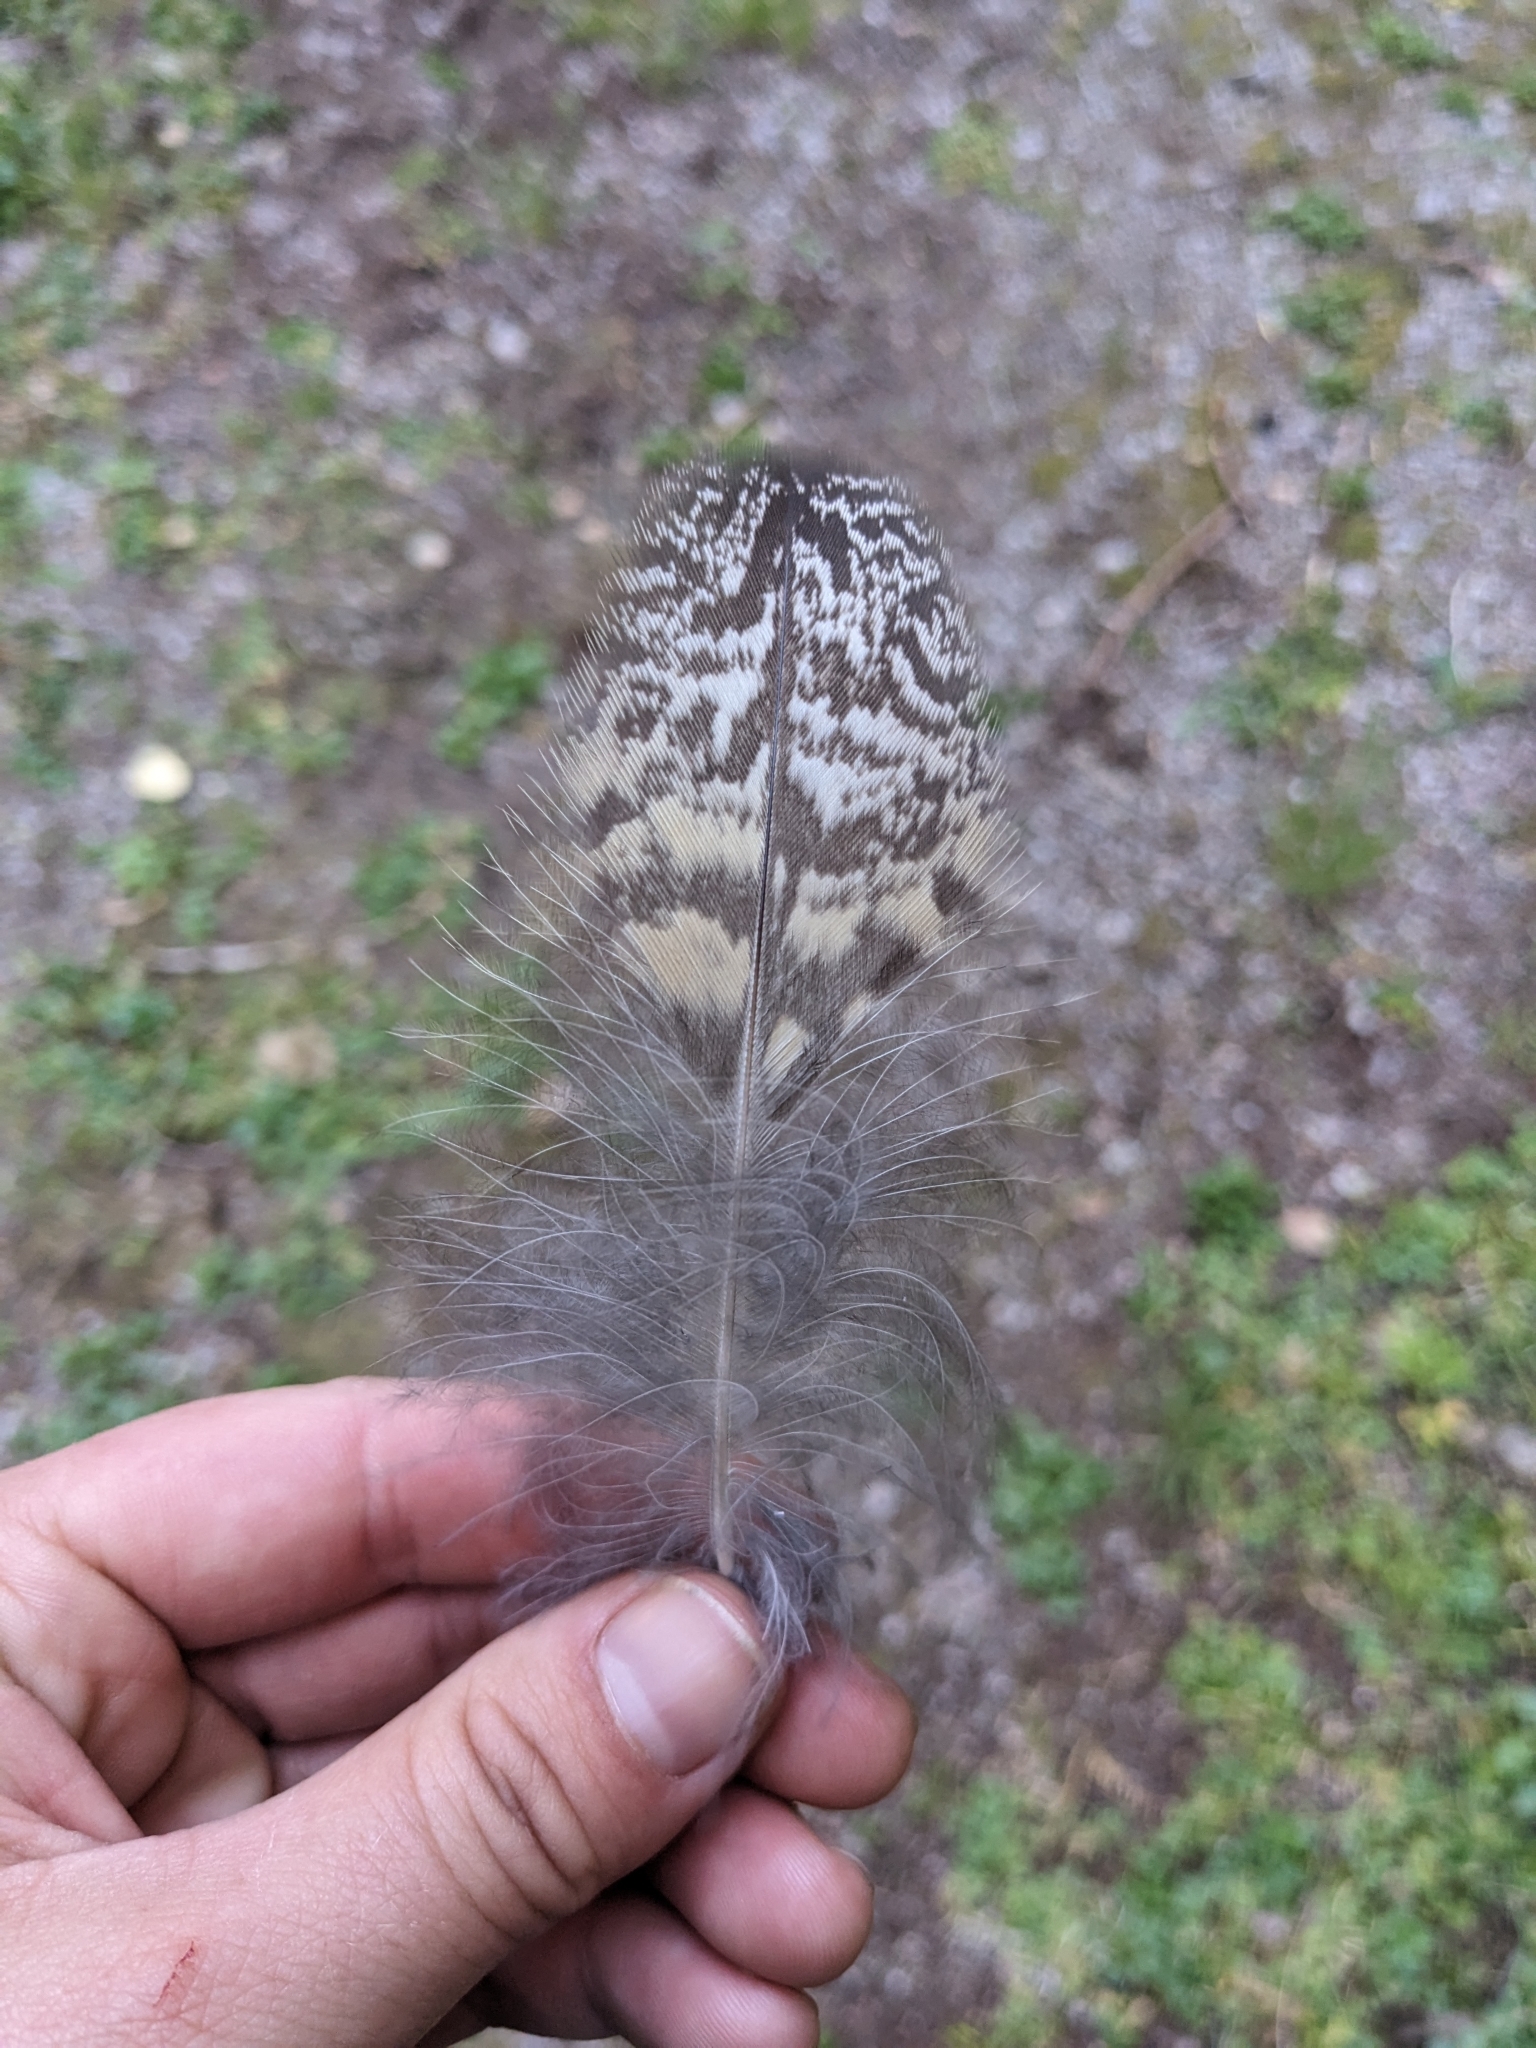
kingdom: Animalia
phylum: Chordata
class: Aves
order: Strigiformes
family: Strigidae
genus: Bubo
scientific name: Bubo virginianus
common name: Great horned owl
